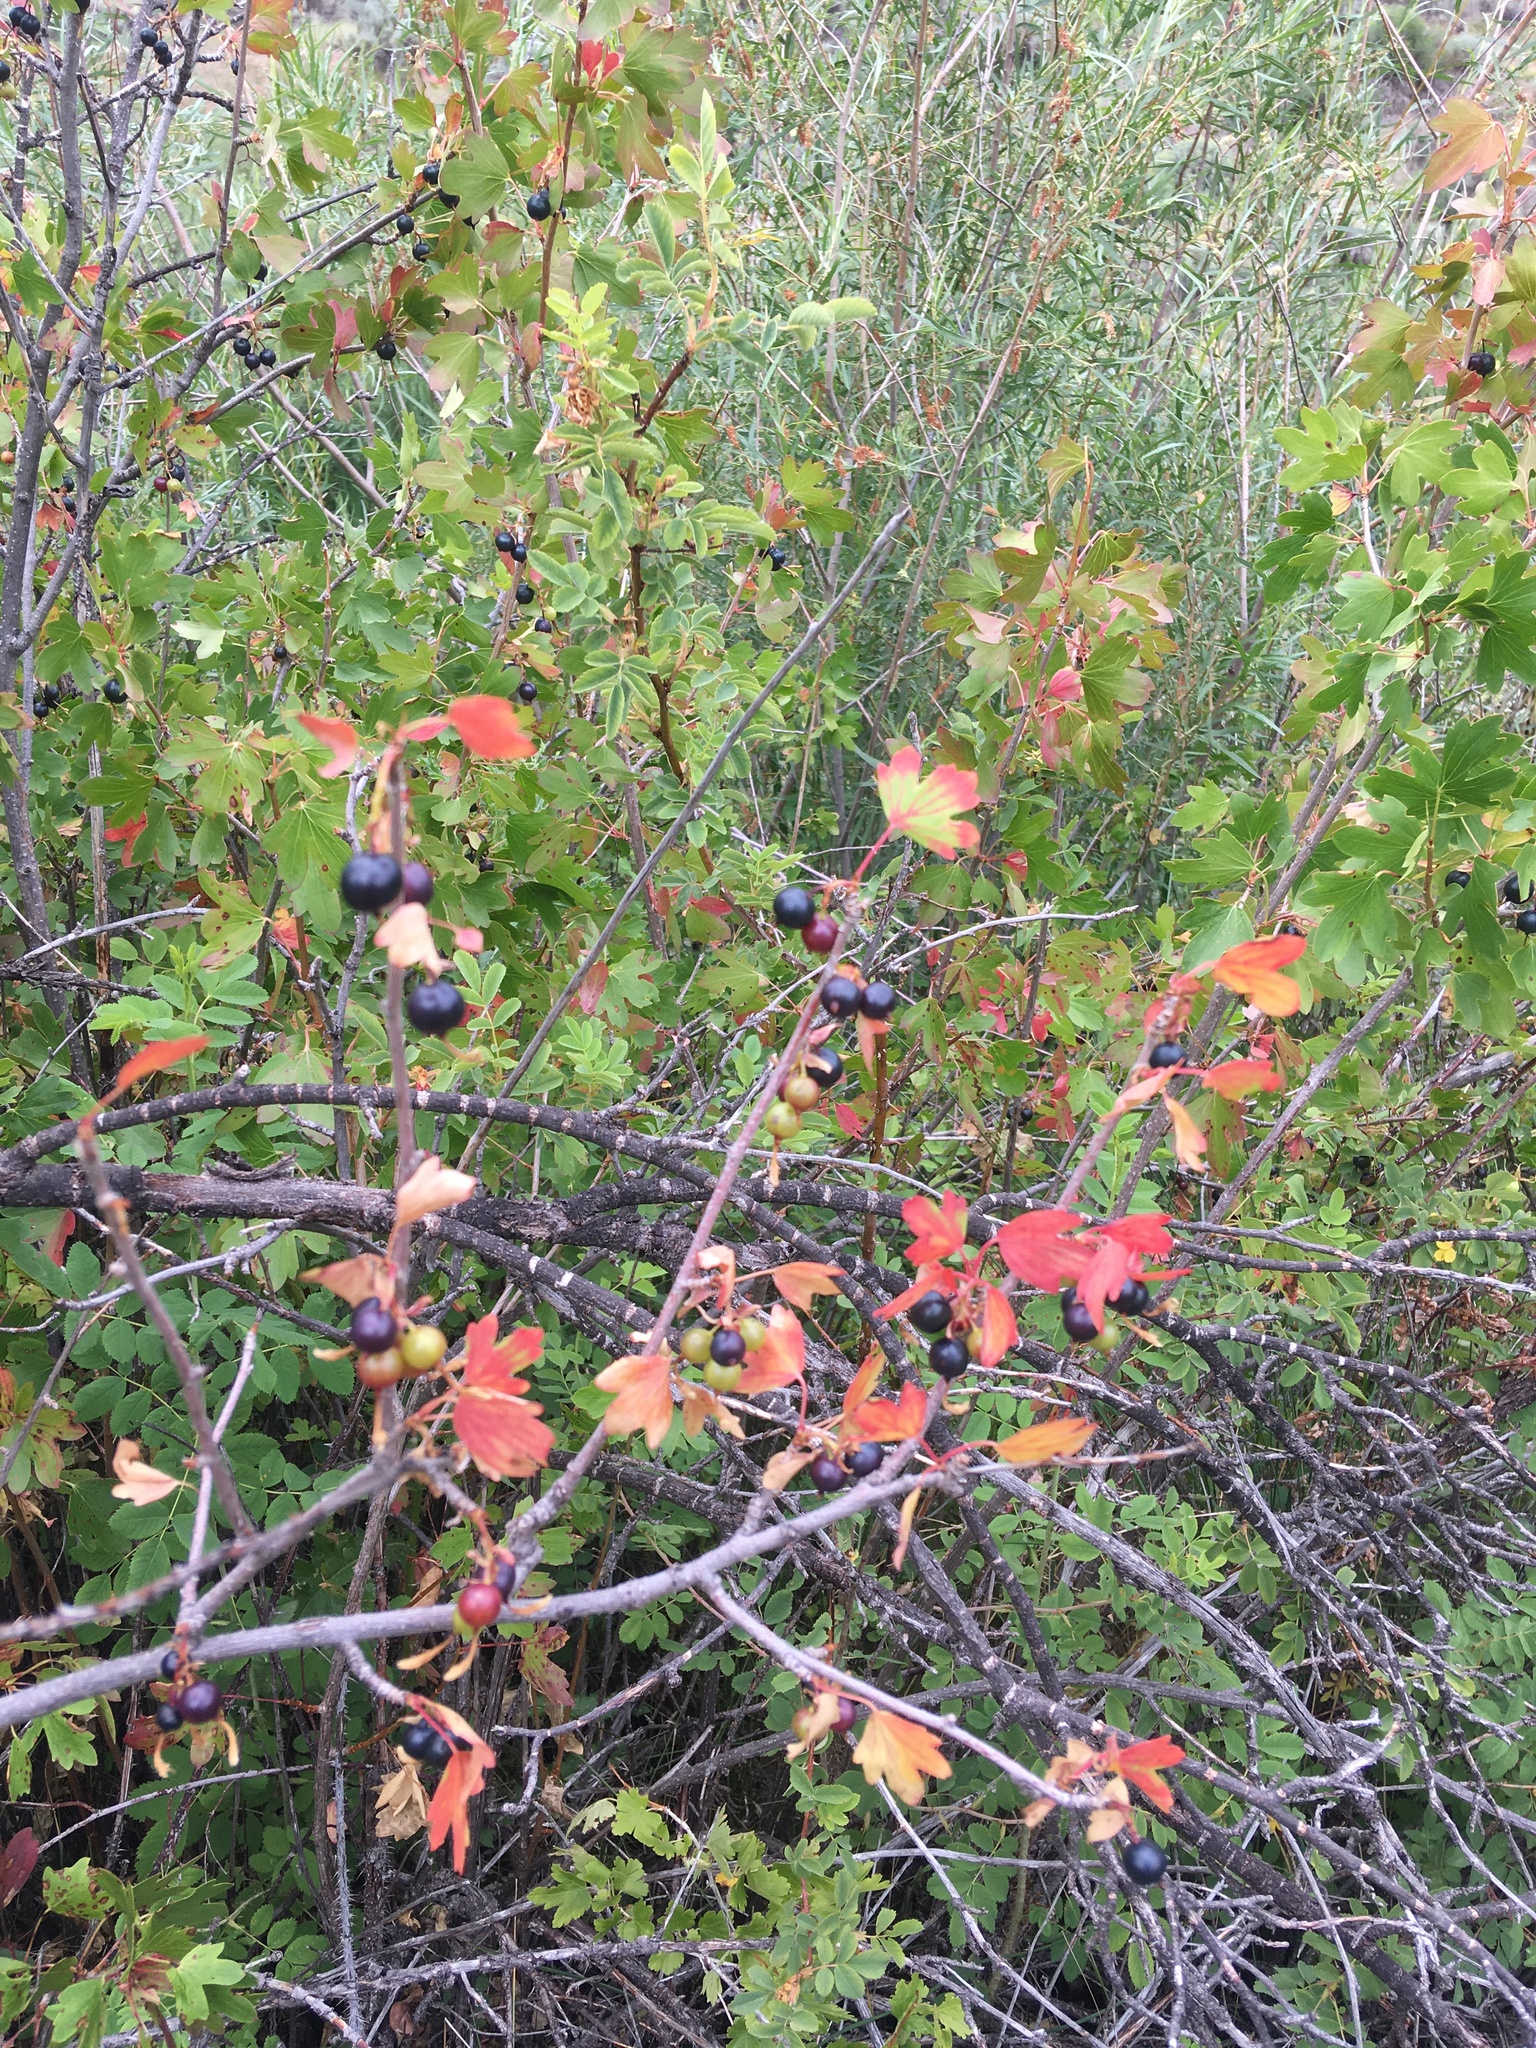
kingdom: Plantae
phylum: Tracheophyta
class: Magnoliopsida
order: Saxifragales
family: Grossulariaceae
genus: Ribes
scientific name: Ribes aureum
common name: Golden currant
